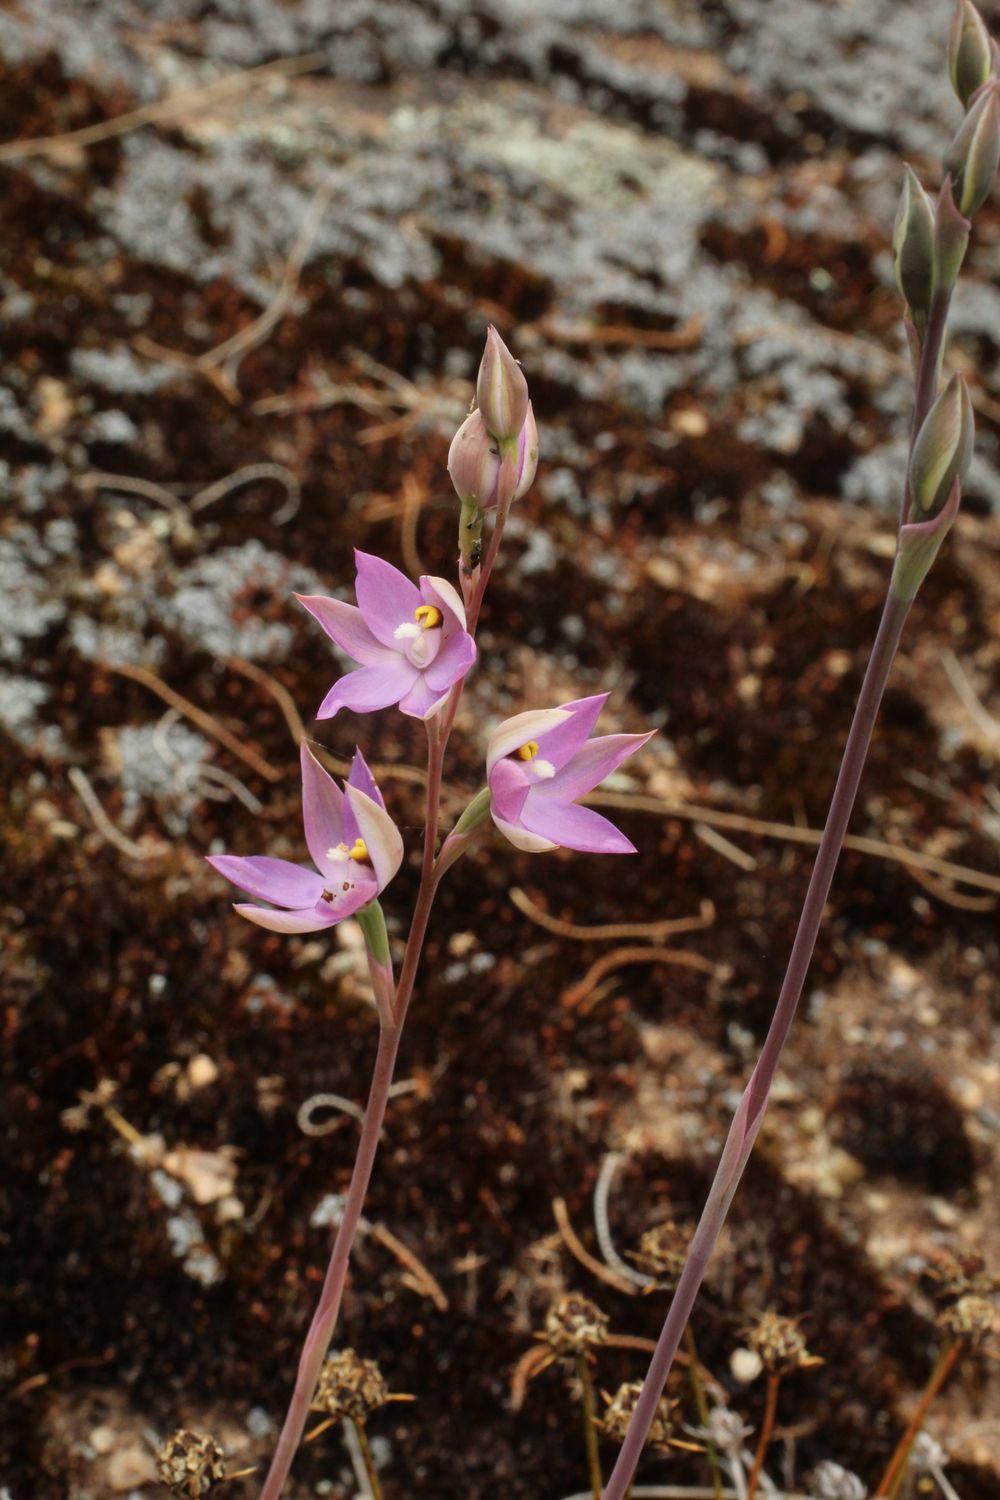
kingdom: Plantae
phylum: Tracheophyta
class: Liliopsida
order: Asparagales
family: Orchidaceae
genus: Thelymitra
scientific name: Thelymitra petrophila
